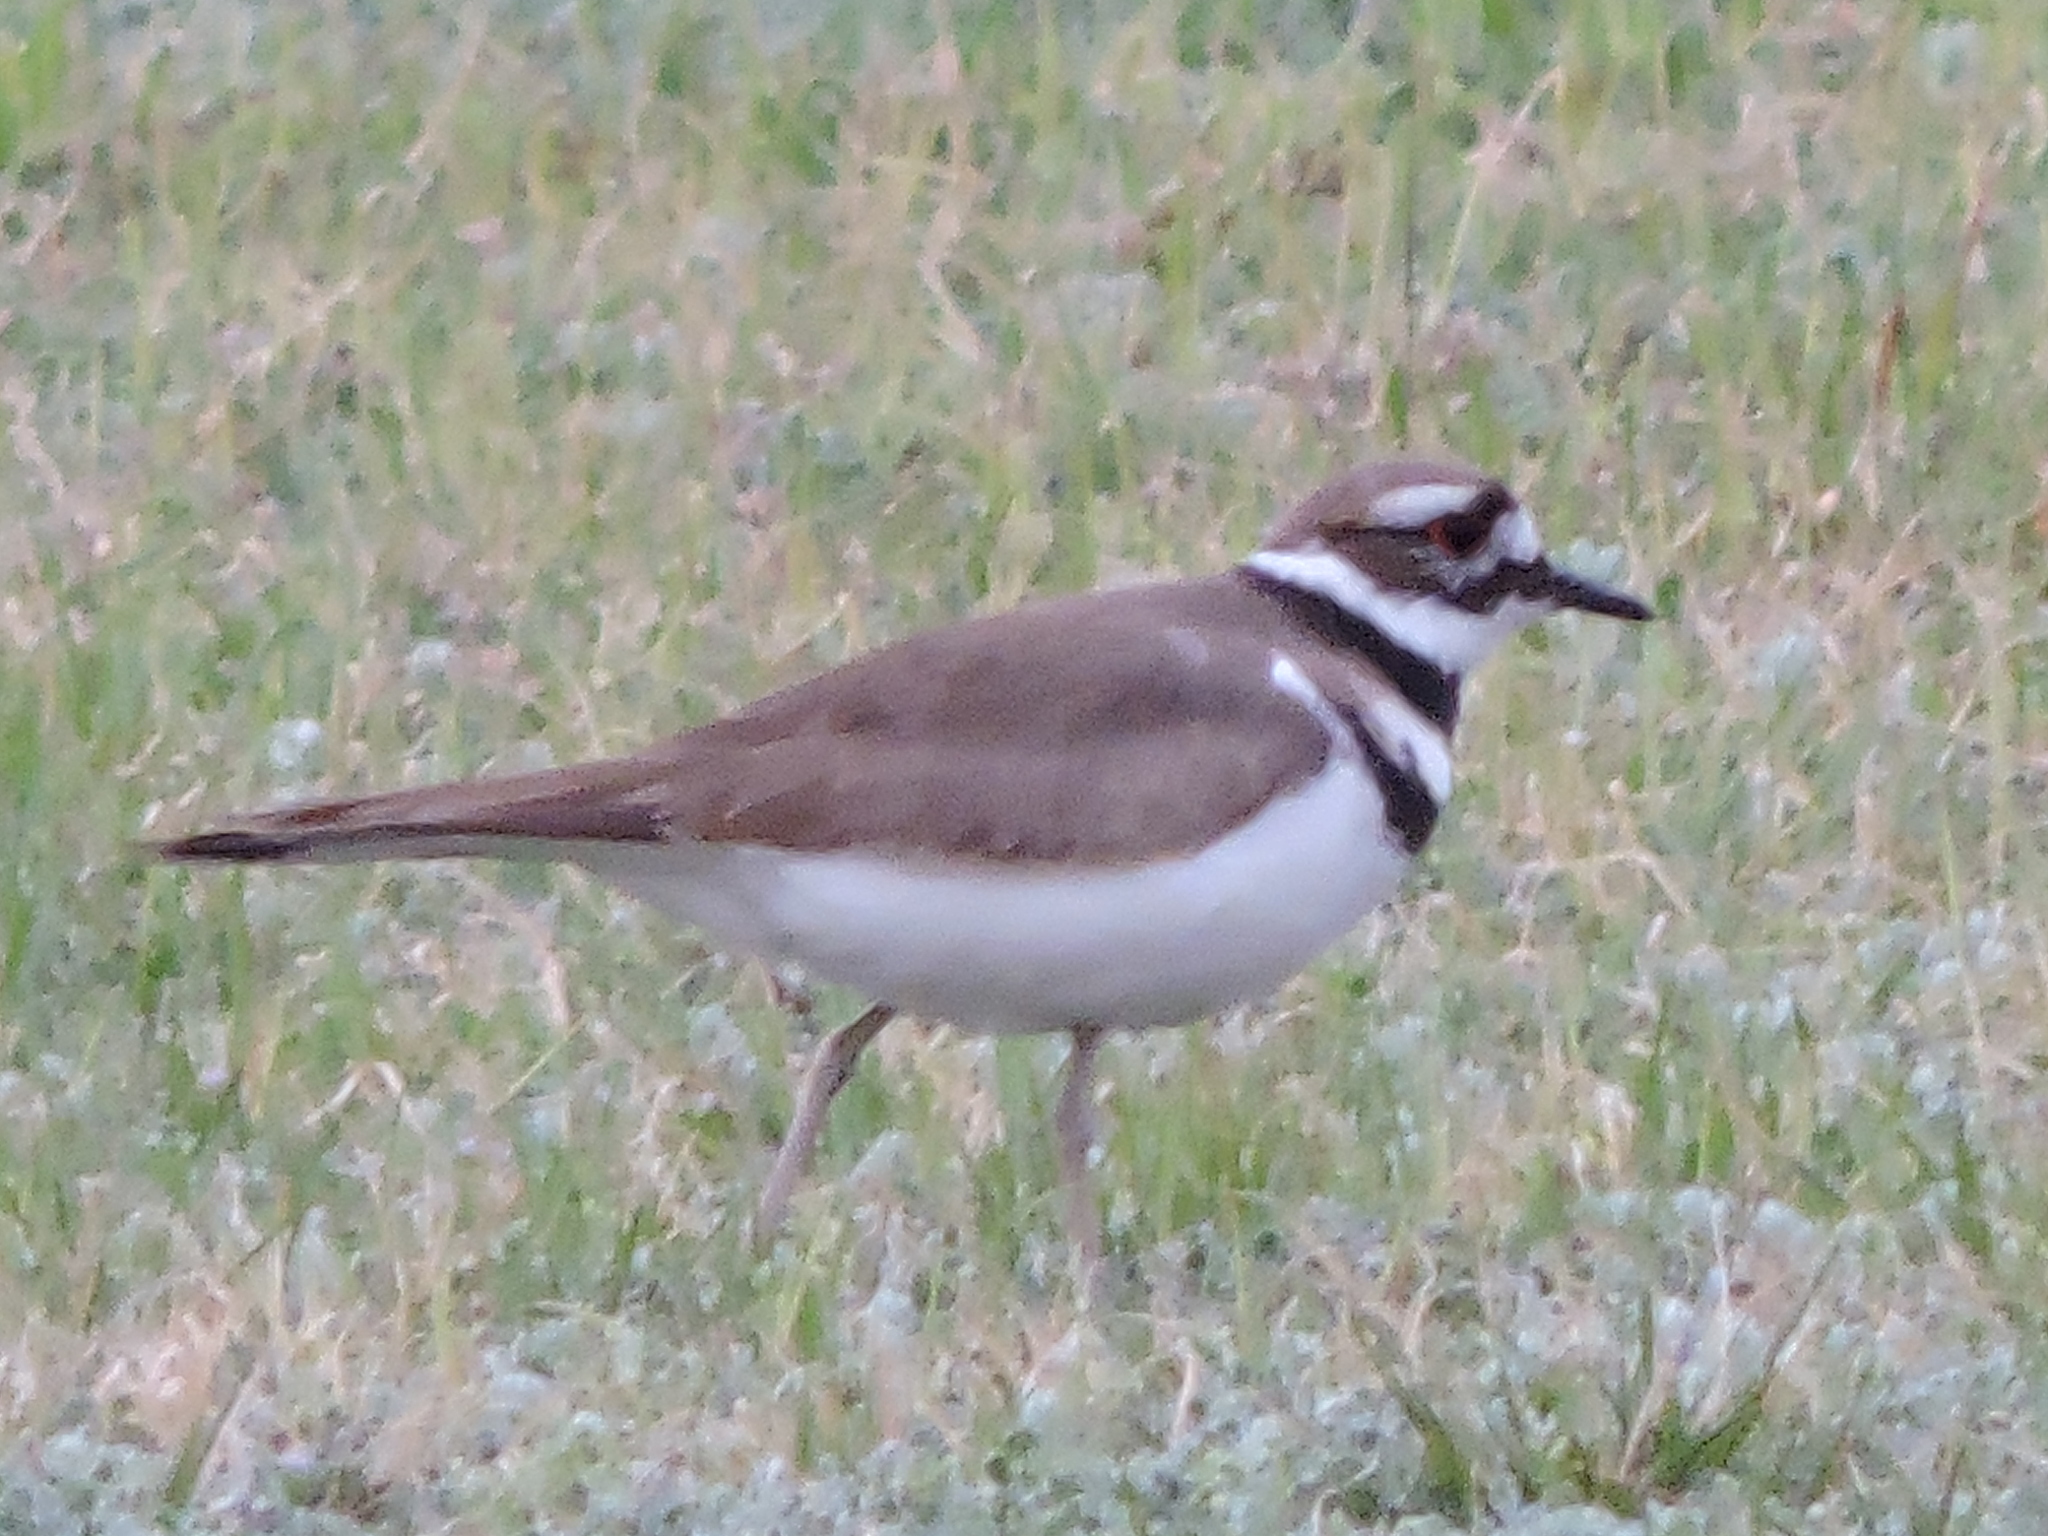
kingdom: Animalia
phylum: Chordata
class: Aves
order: Charadriiformes
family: Charadriidae
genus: Charadrius
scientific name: Charadrius vociferus
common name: Killdeer
